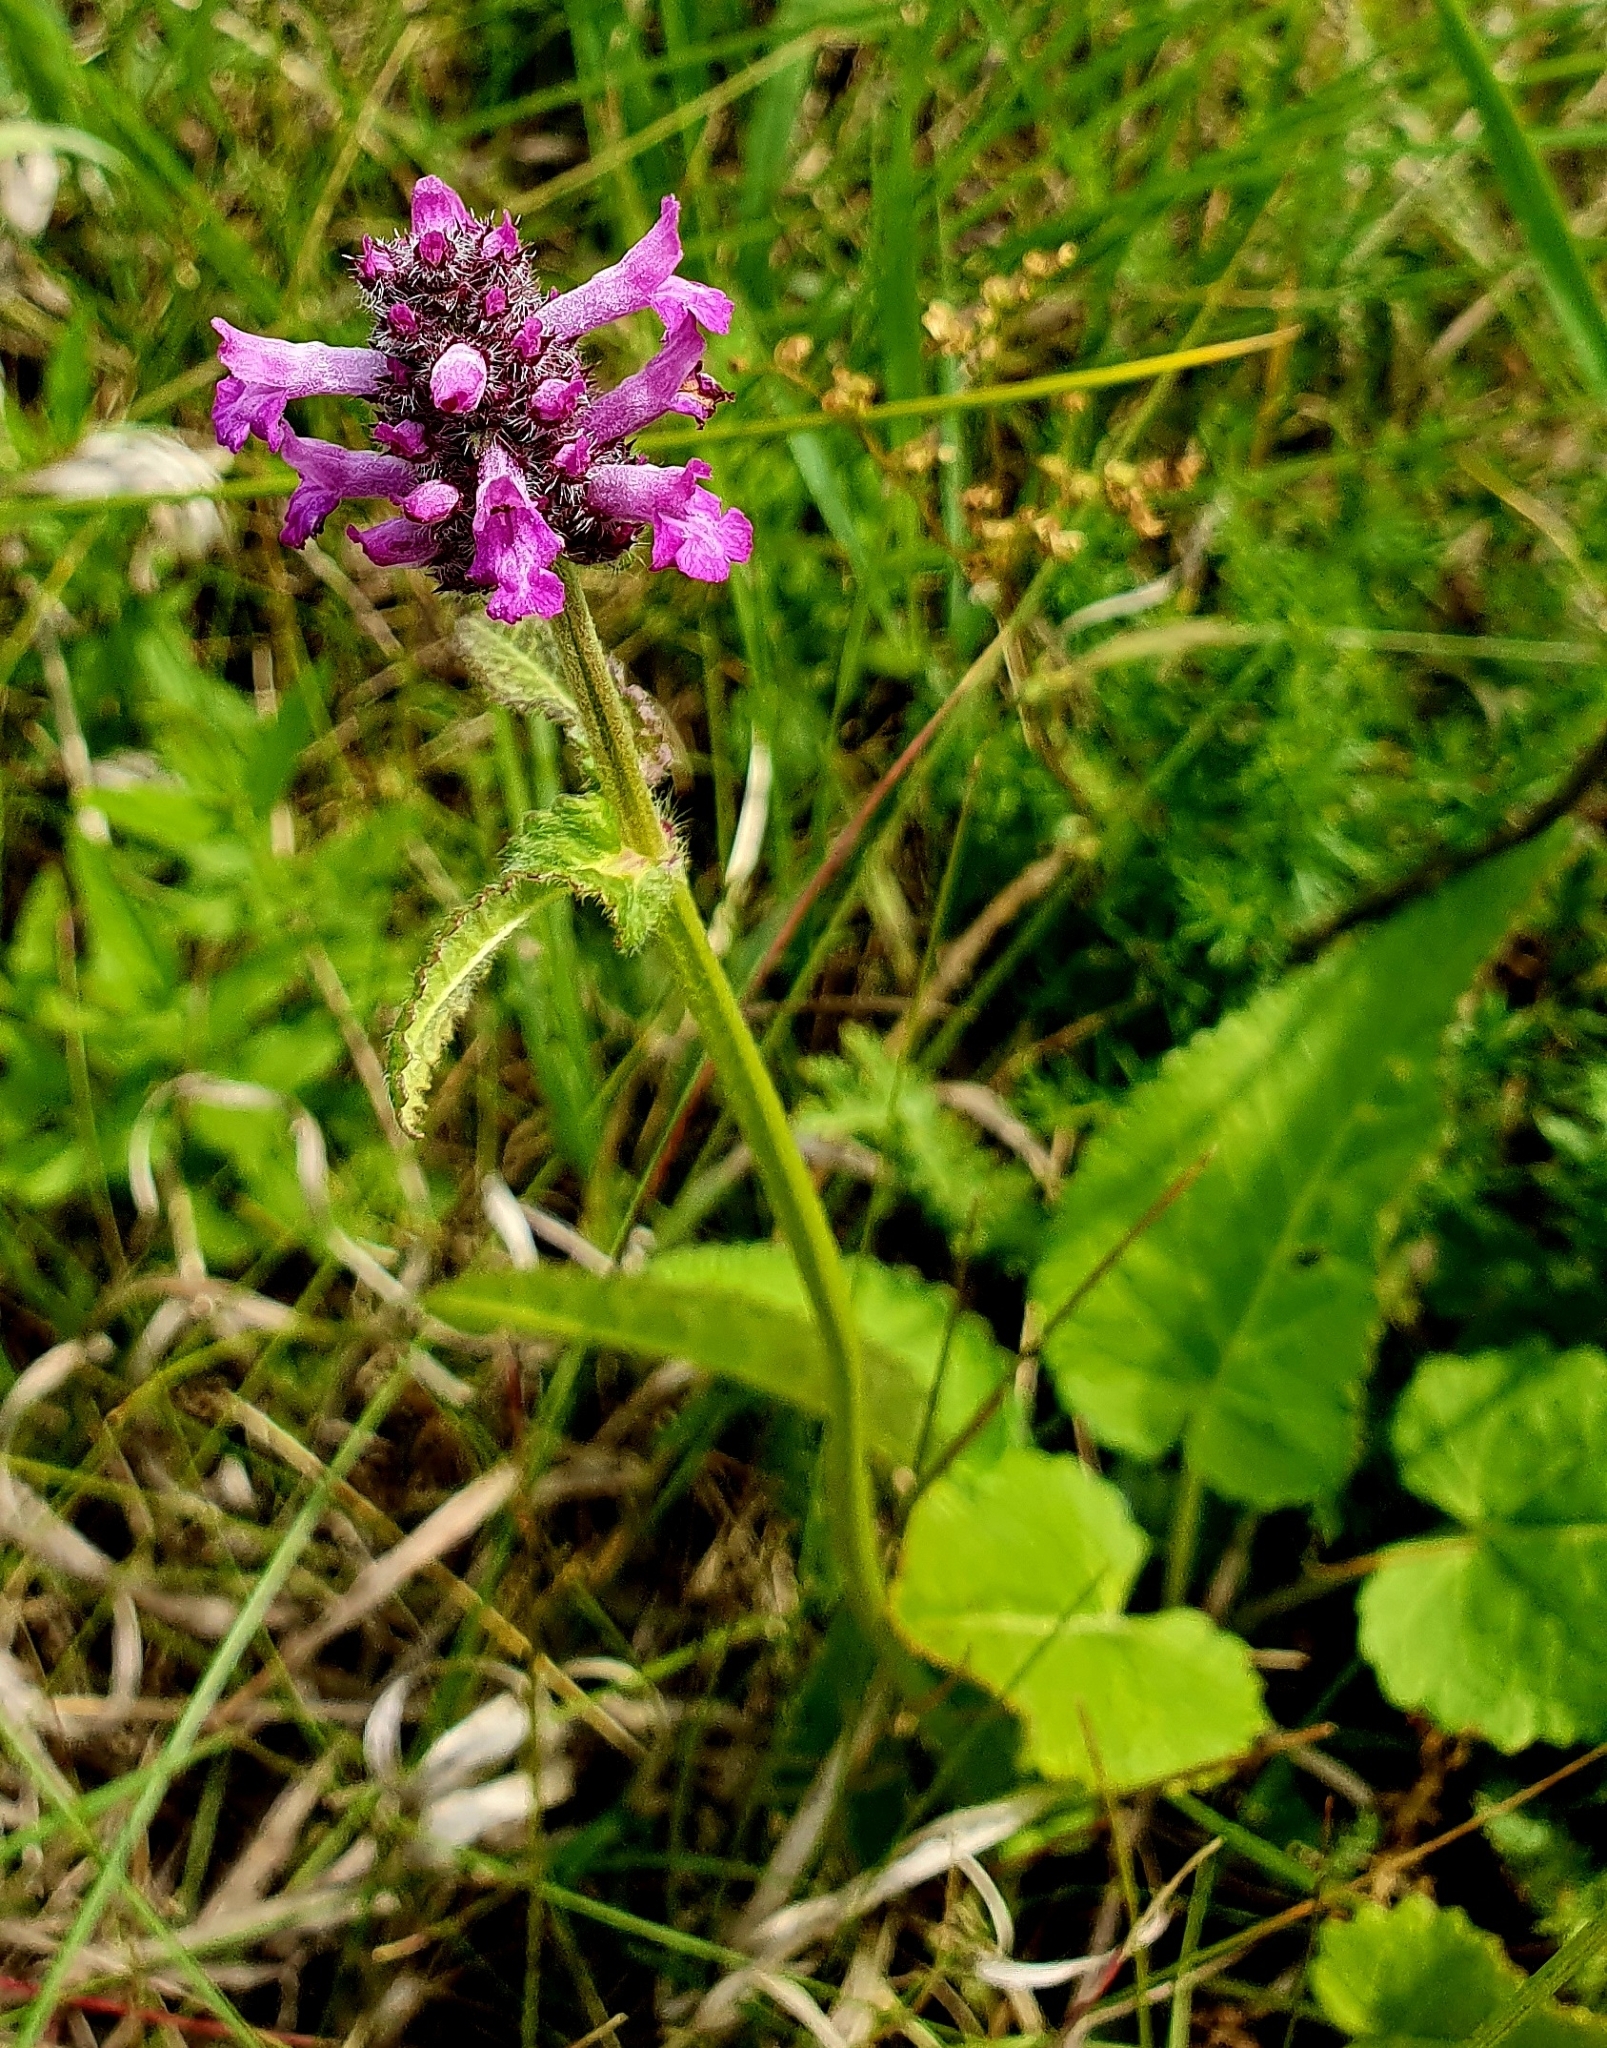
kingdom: Plantae
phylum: Tracheophyta
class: Magnoliopsida
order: Lamiales
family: Lamiaceae
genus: Betonica
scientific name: Betonica officinalis
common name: Bishop's-wort
